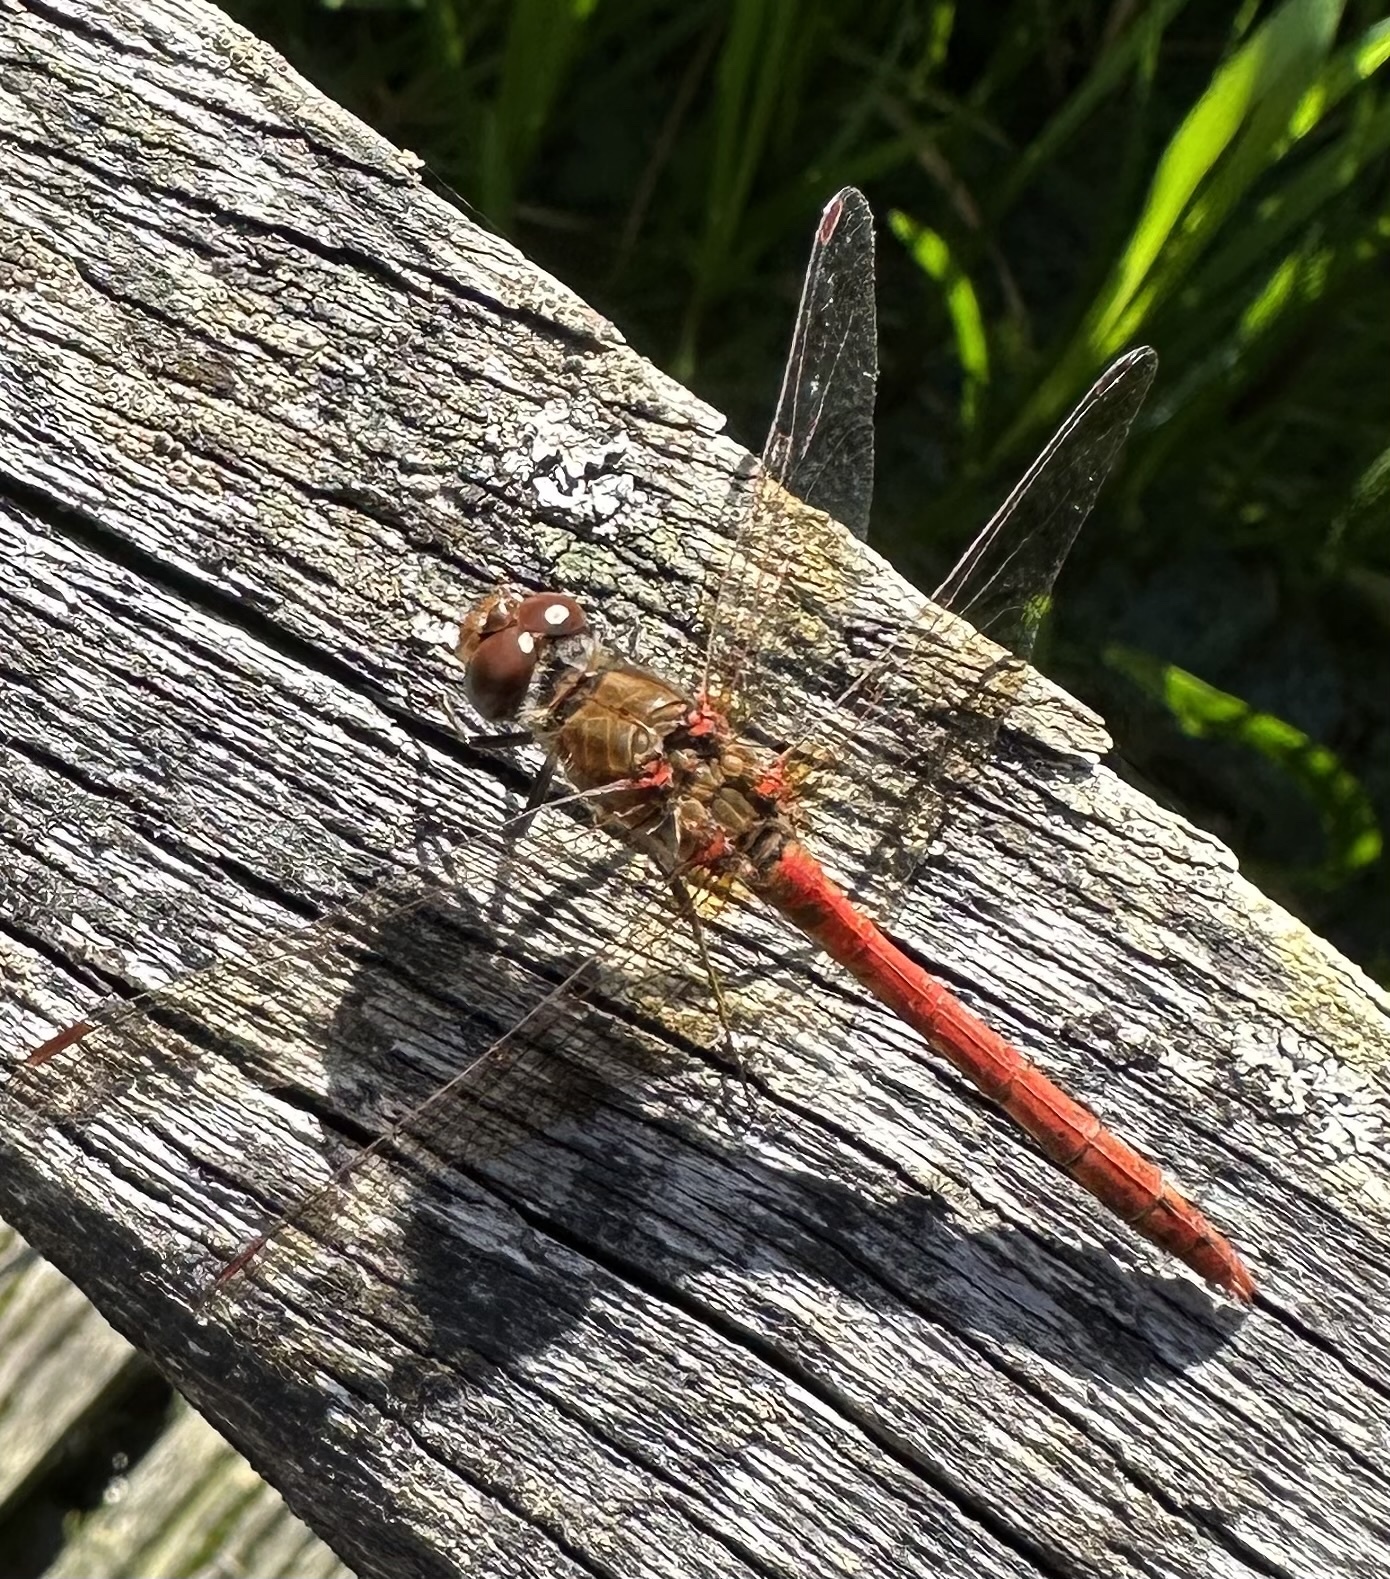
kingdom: Animalia
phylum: Arthropoda
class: Insecta
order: Odonata
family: Libellulidae
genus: Sympetrum
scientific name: Sympetrum striolatum
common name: Common darter
